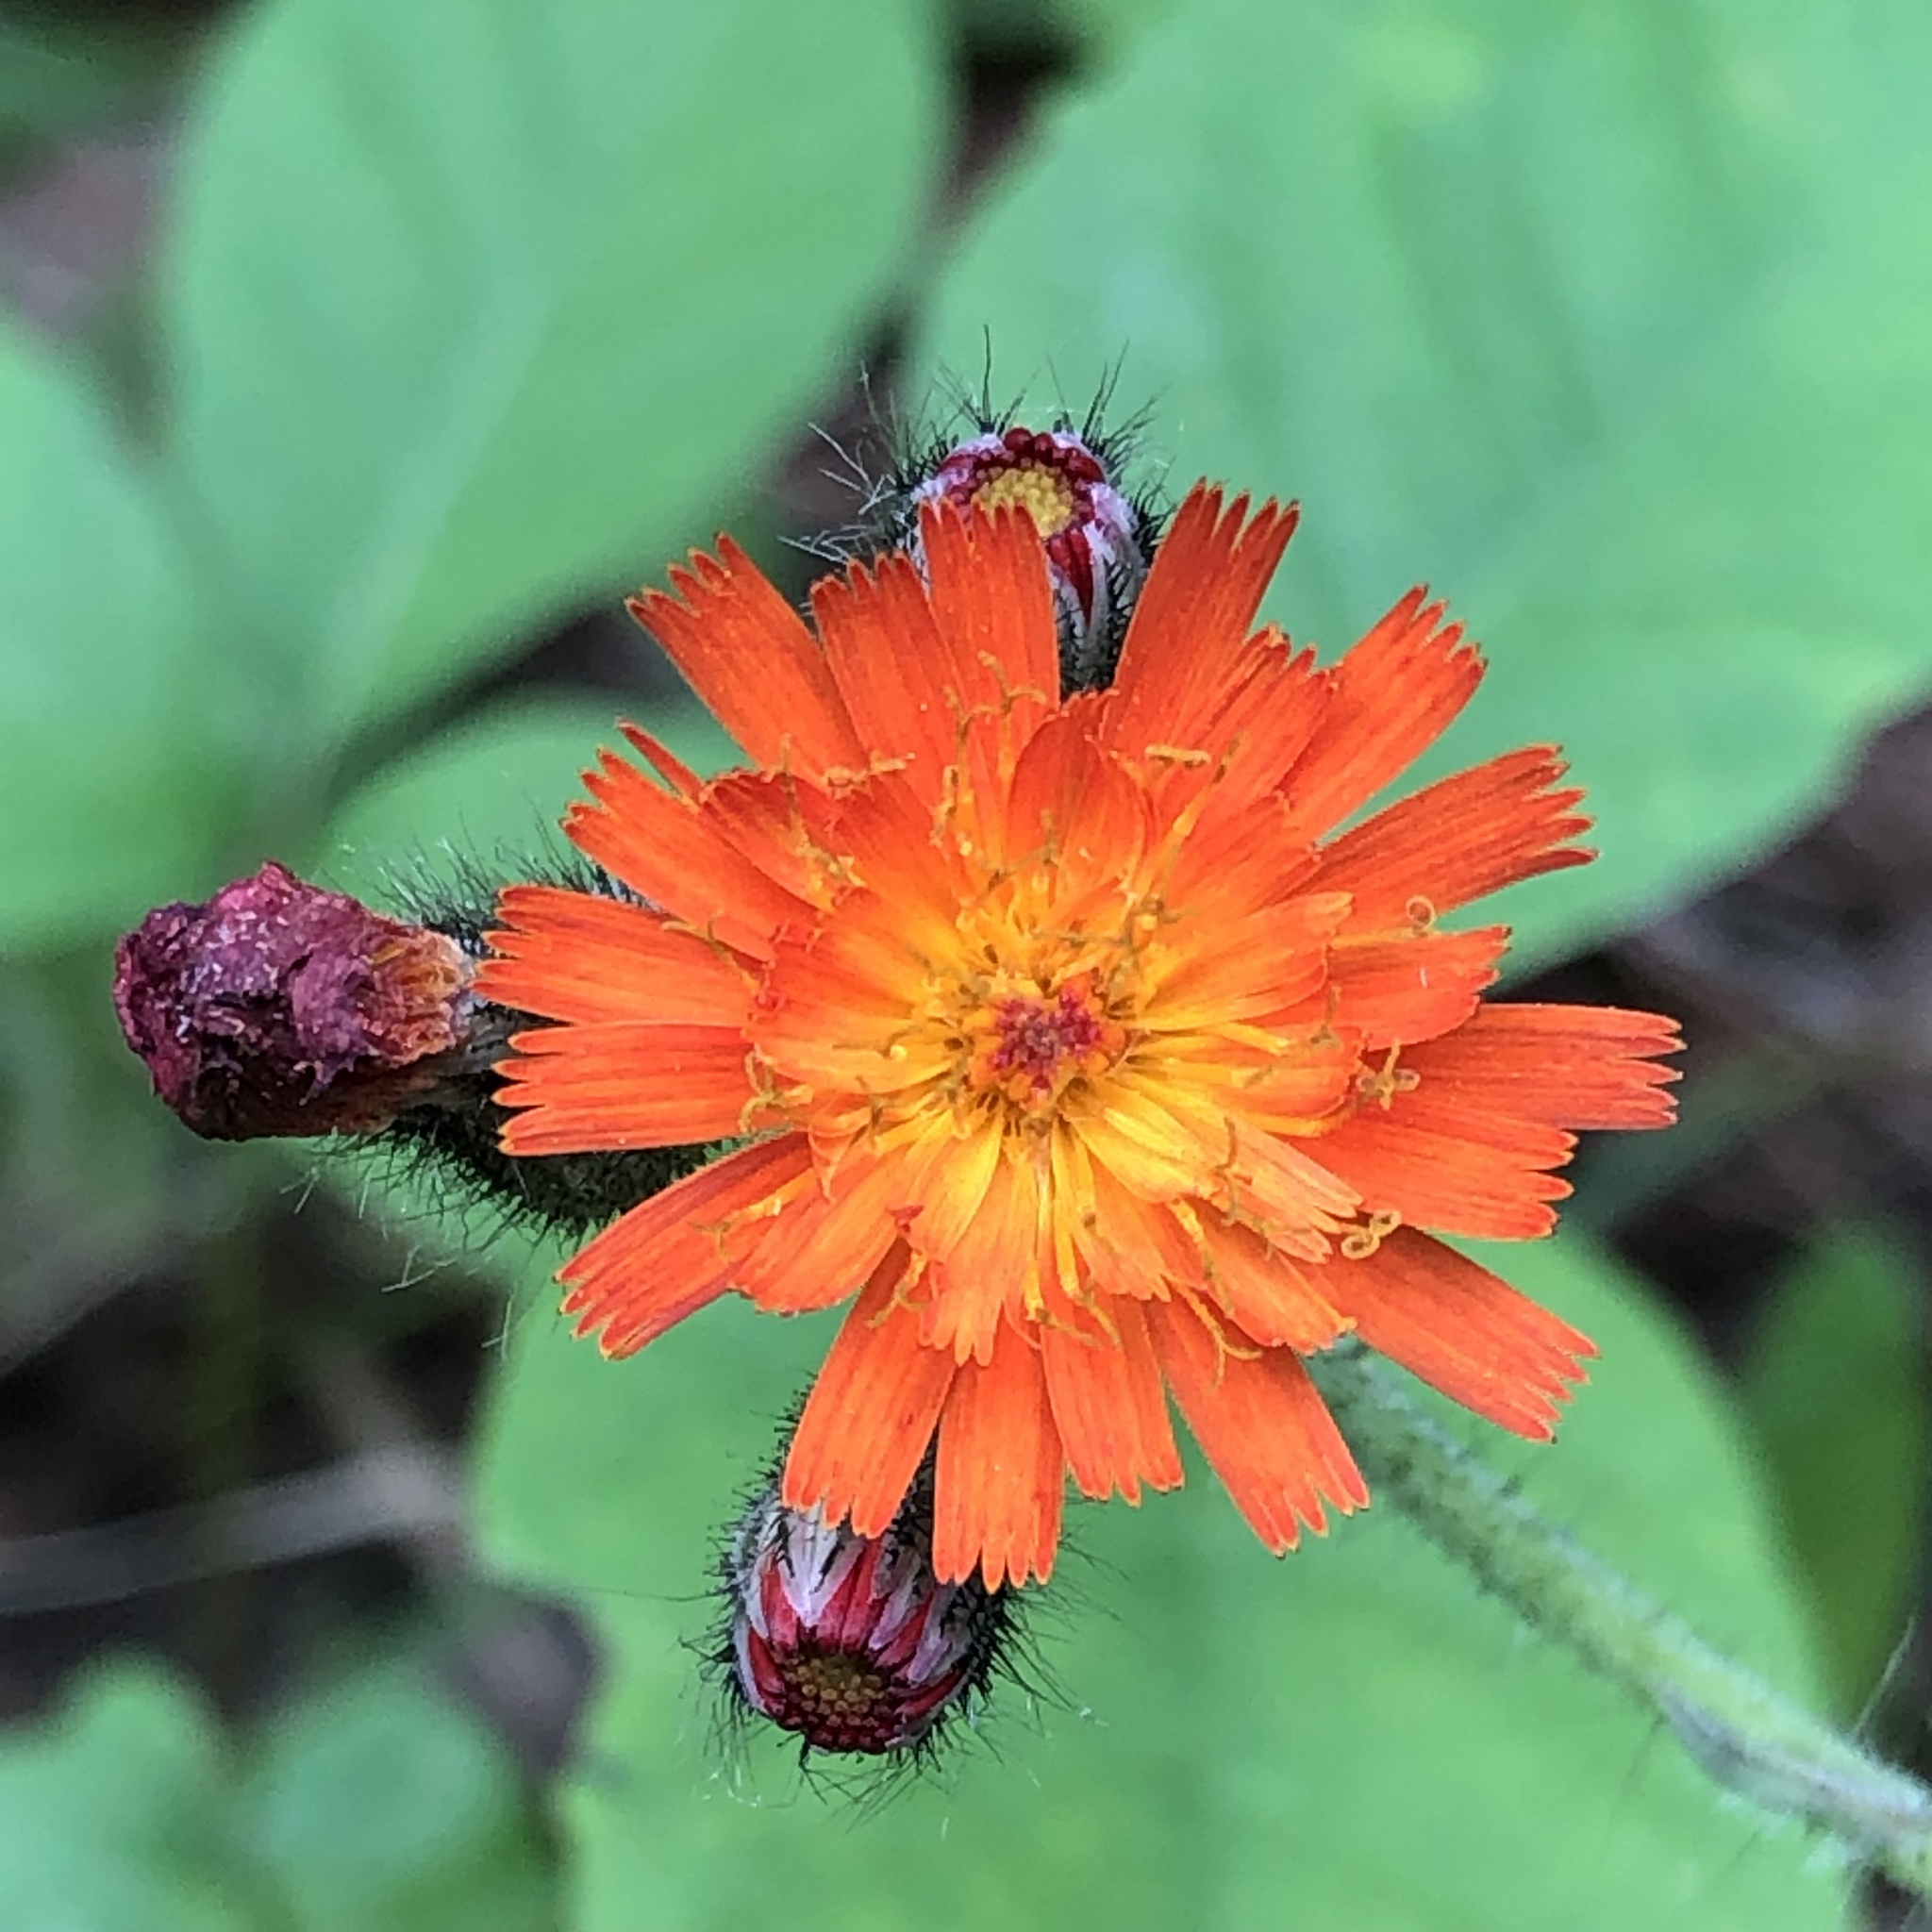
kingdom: Plantae
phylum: Tracheophyta
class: Magnoliopsida
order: Asterales
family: Asteraceae
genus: Pilosella
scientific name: Pilosella aurantiaca
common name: Fox-and-cubs
